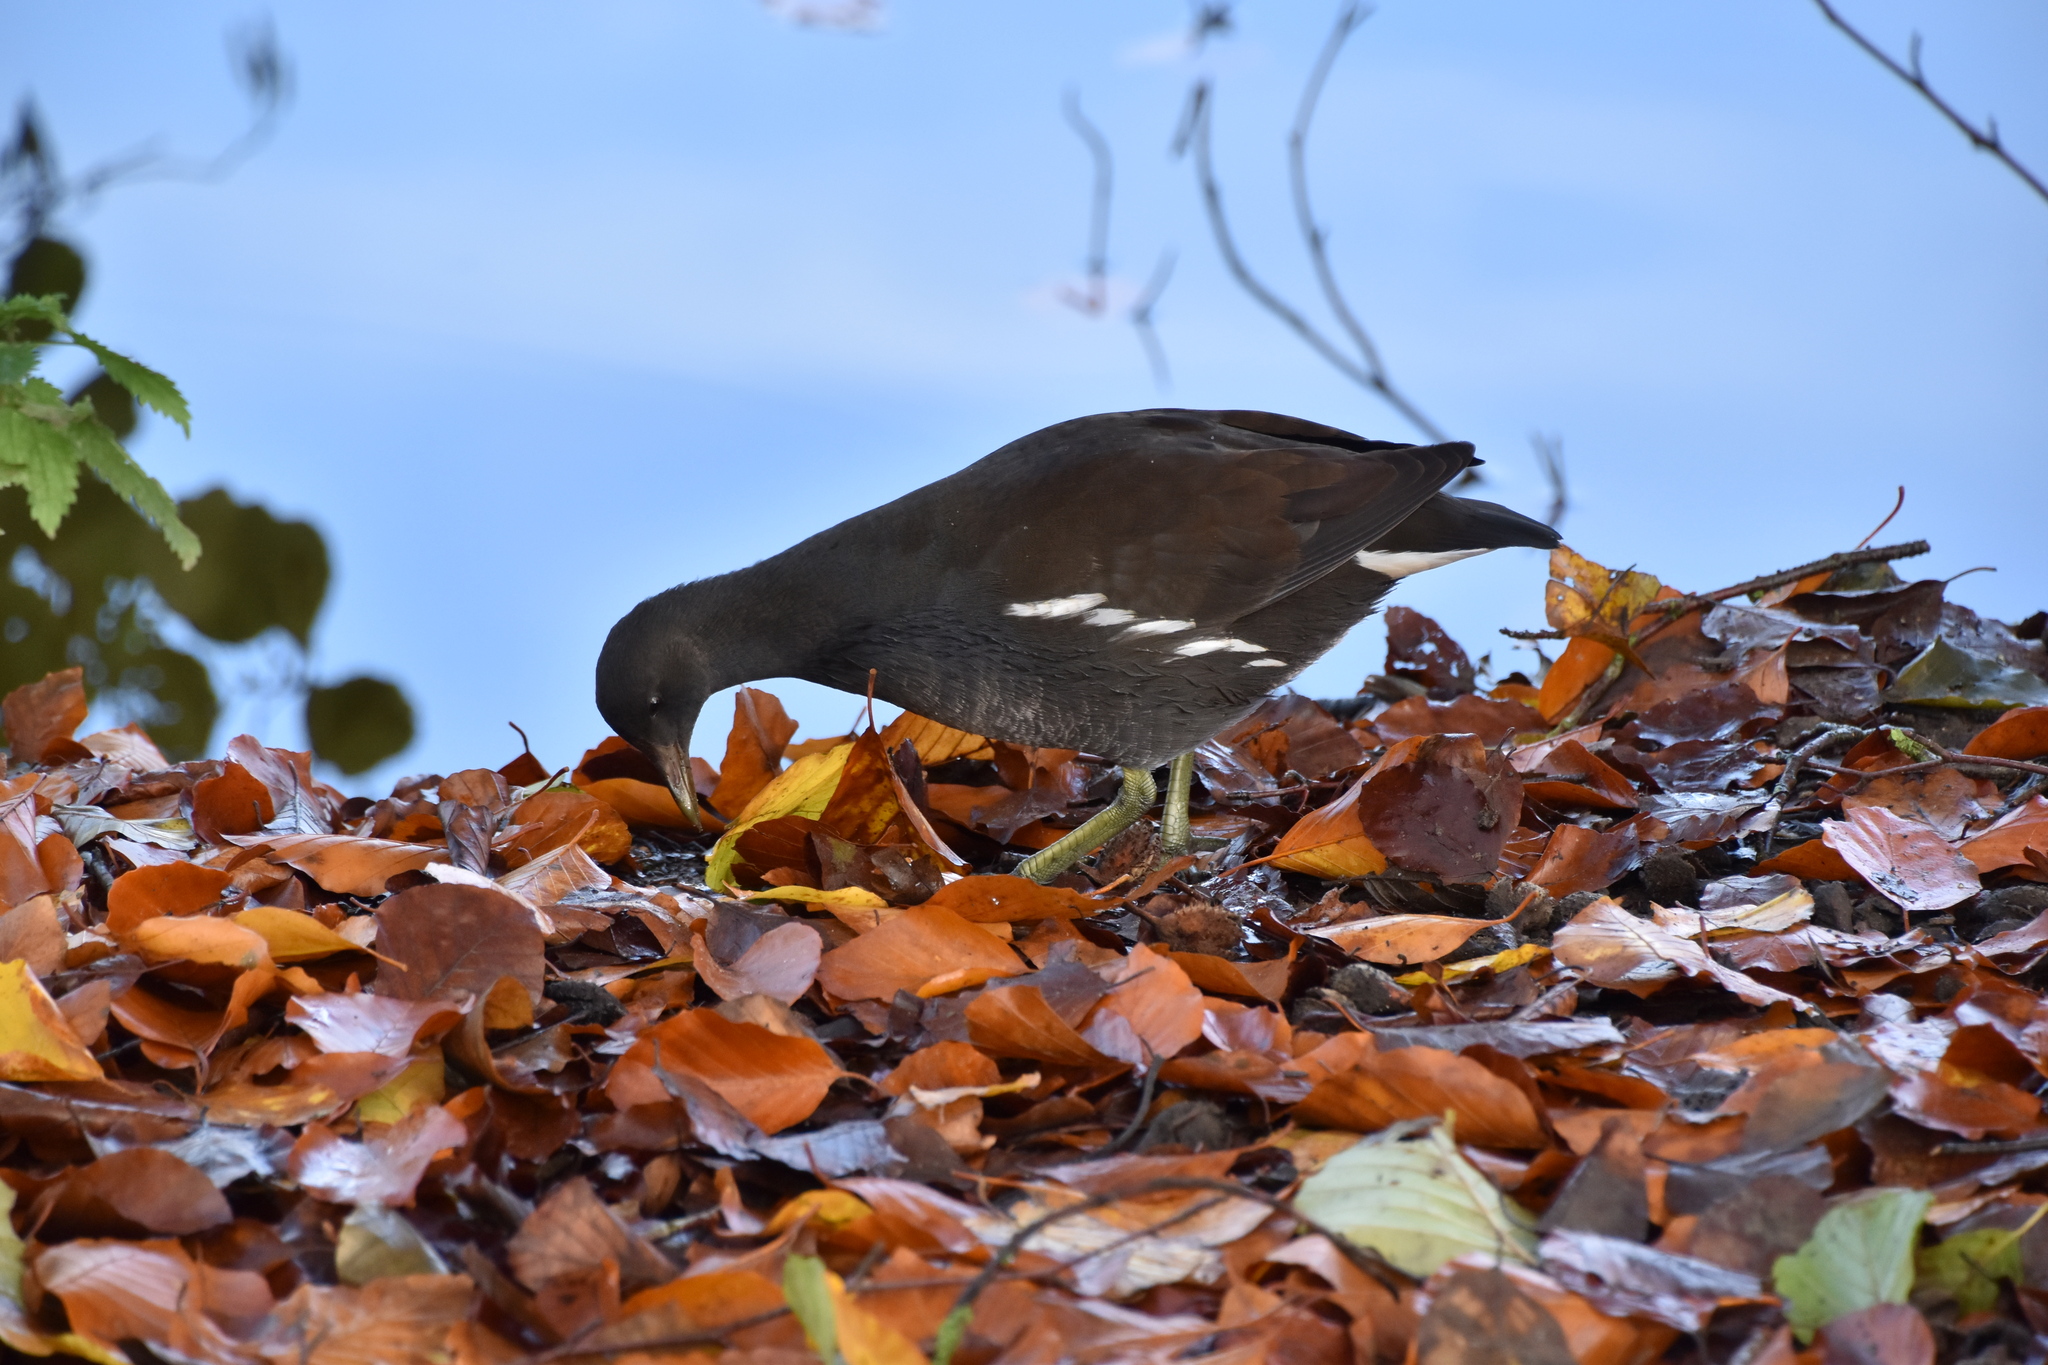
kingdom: Animalia
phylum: Chordata
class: Aves
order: Gruiformes
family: Rallidae
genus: Gallinula
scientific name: Gallinula chloropus
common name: Common moorhen
